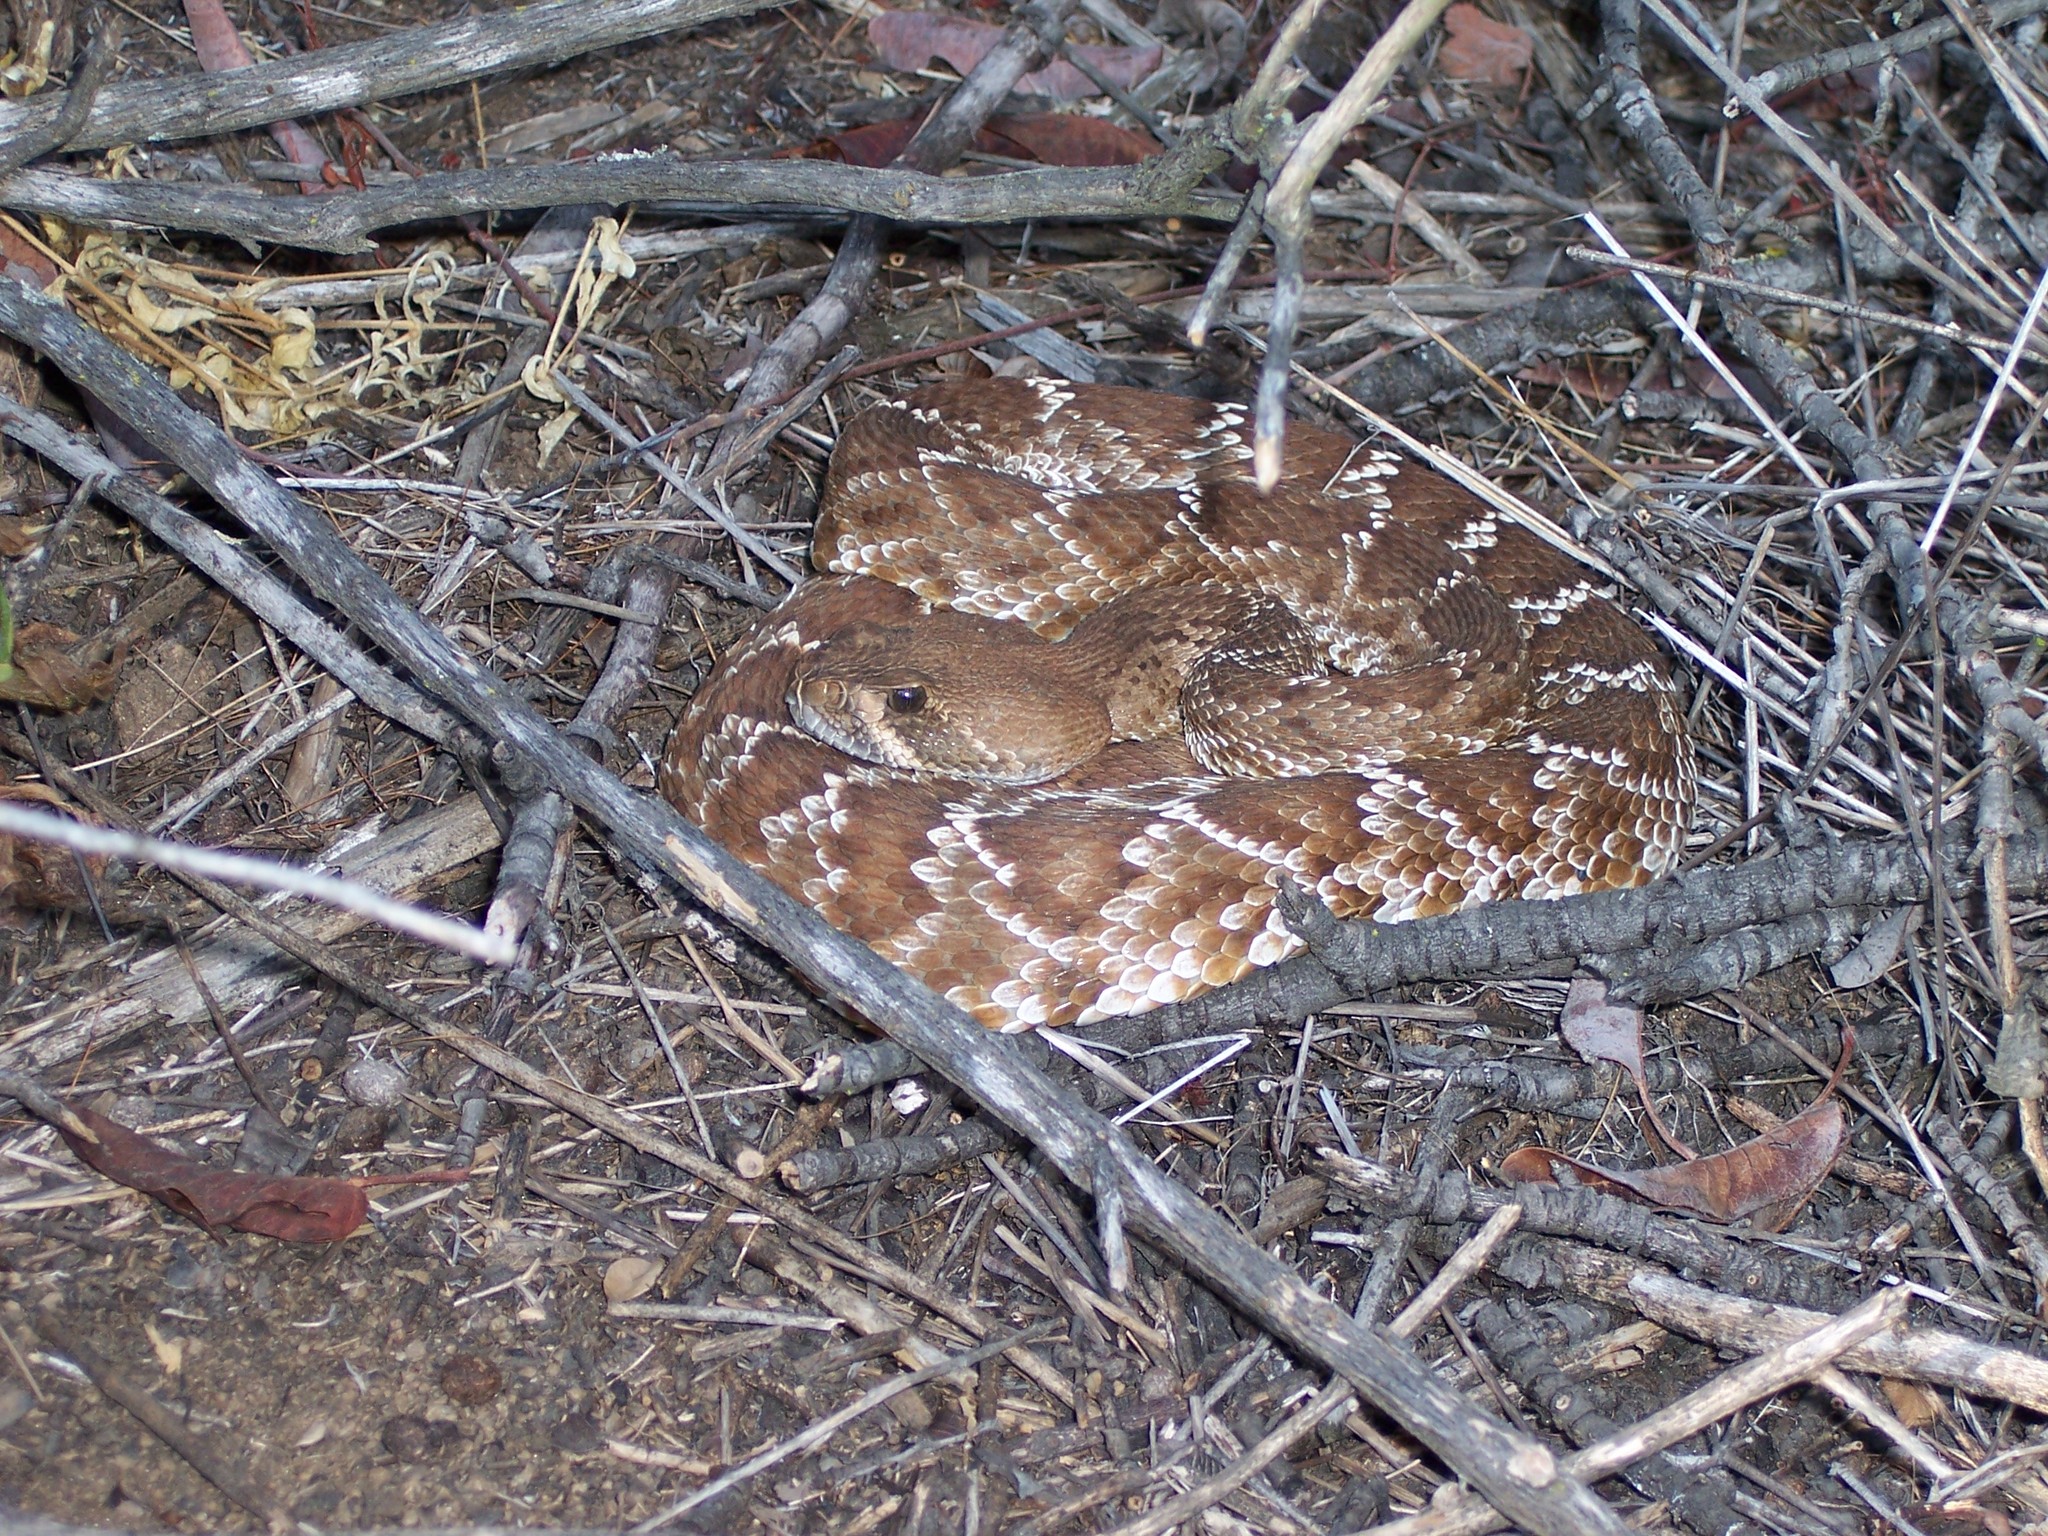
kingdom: Animalia
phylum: Chordata
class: Squamata
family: Viperidae
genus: Crotalus
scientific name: Crotalus ruber
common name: Red diamond rattlesnake
